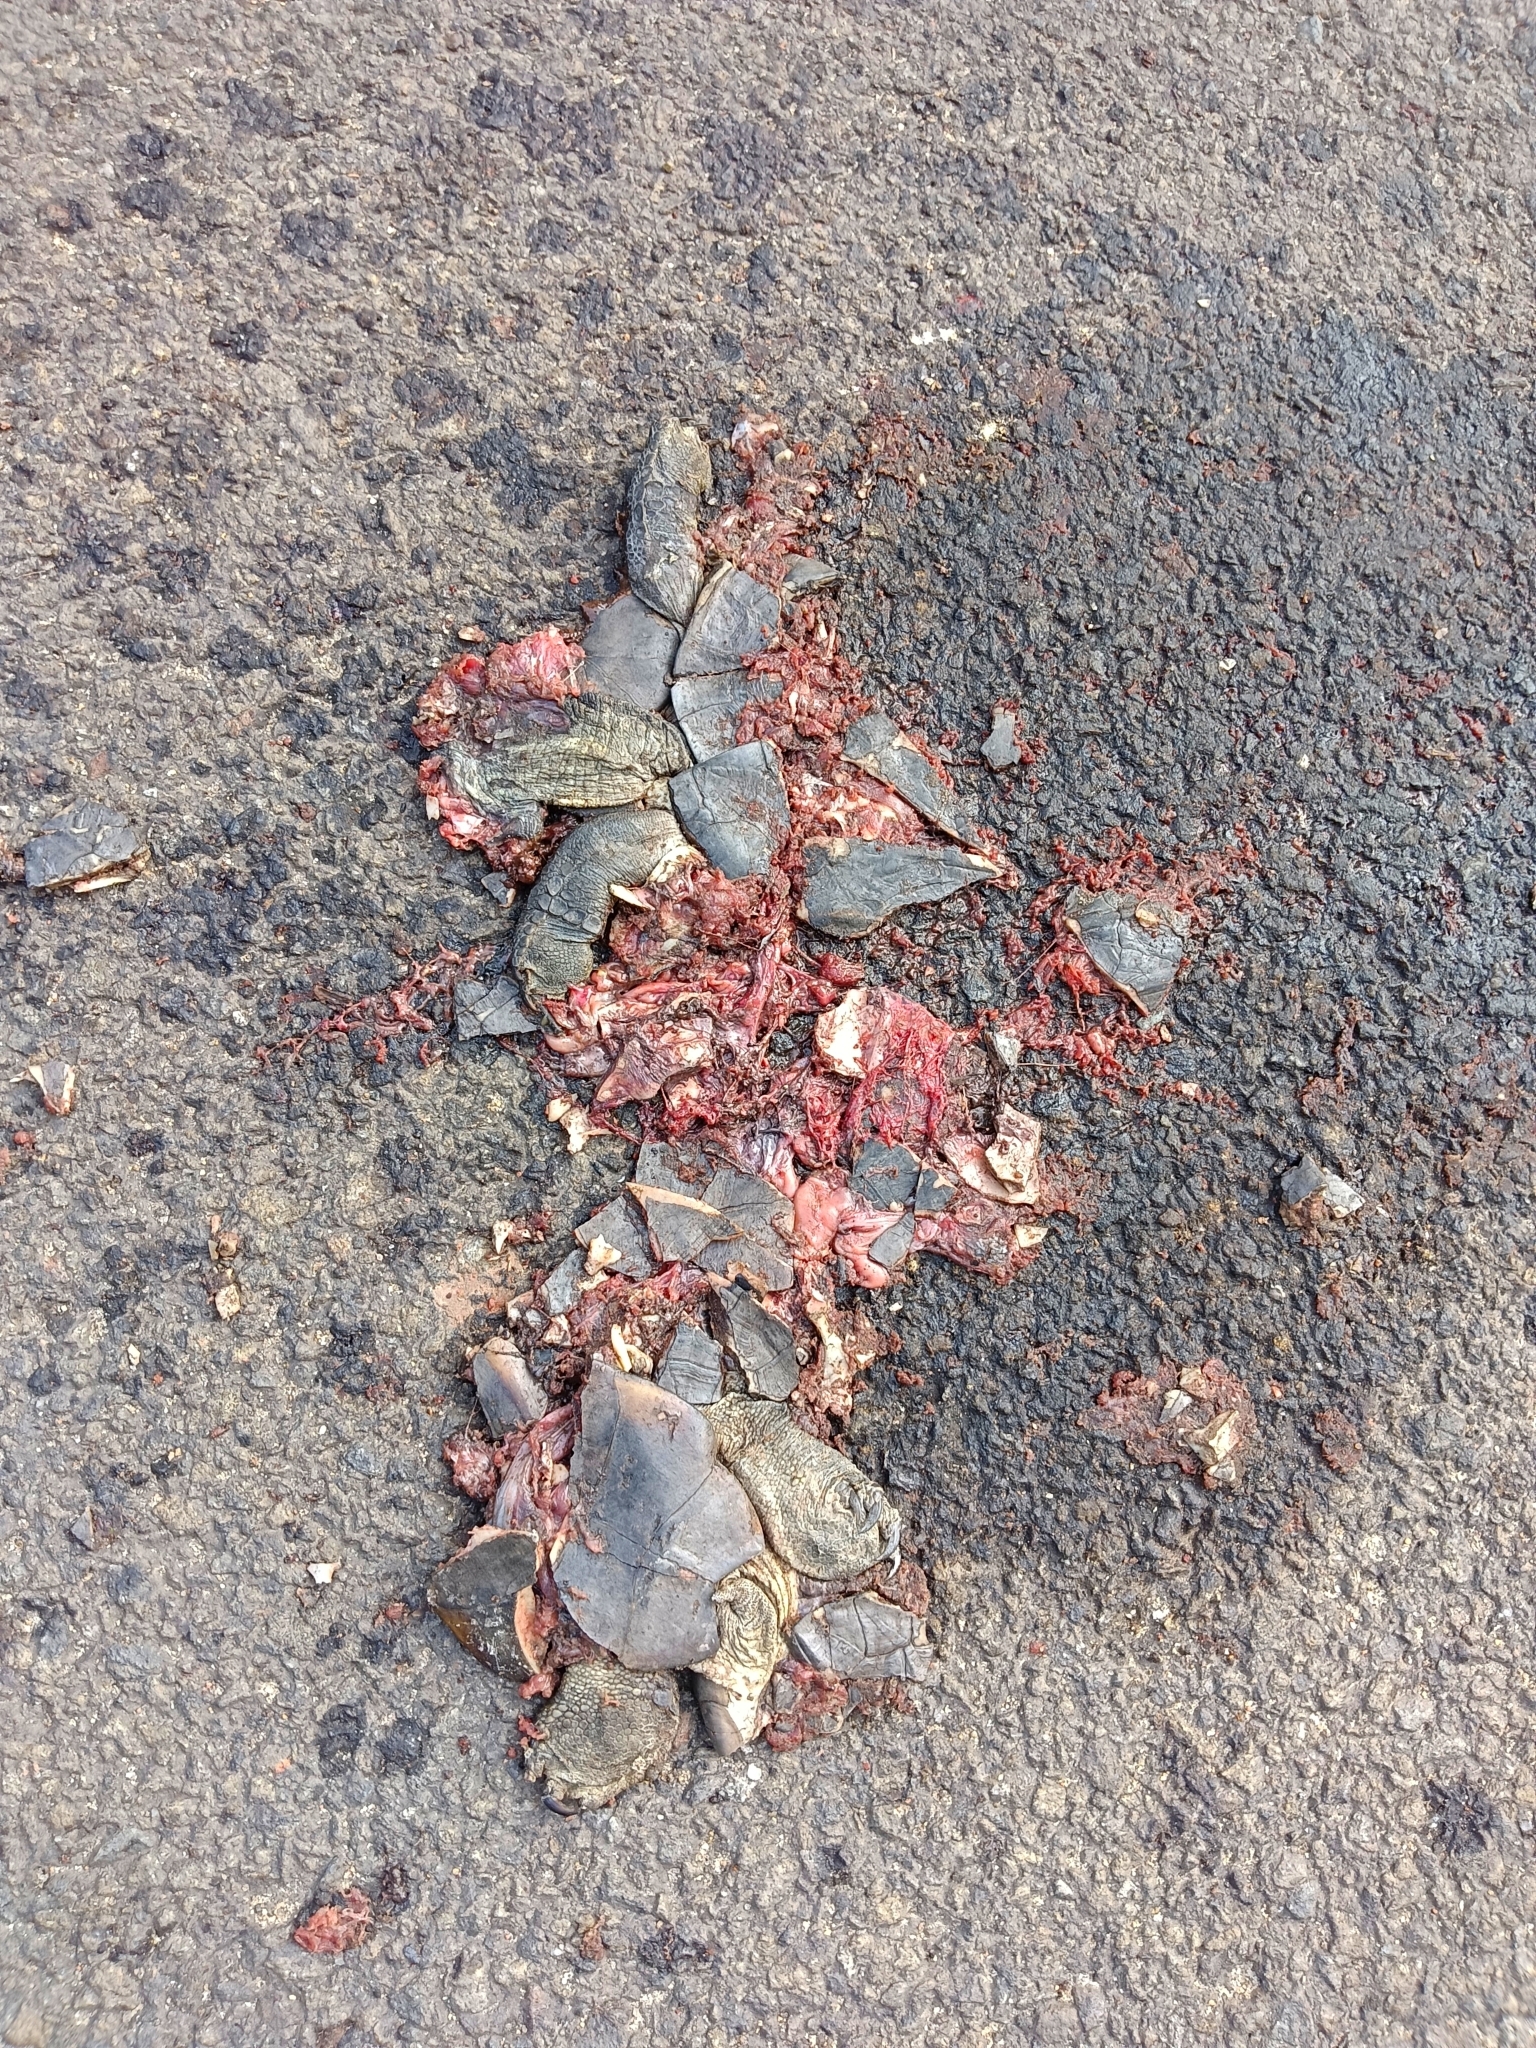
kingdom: Animalia
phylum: Chordata
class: Testudines
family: Geoemydidae
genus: Melanochelys
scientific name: Melanochelys trijuga
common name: Indian black turtle
